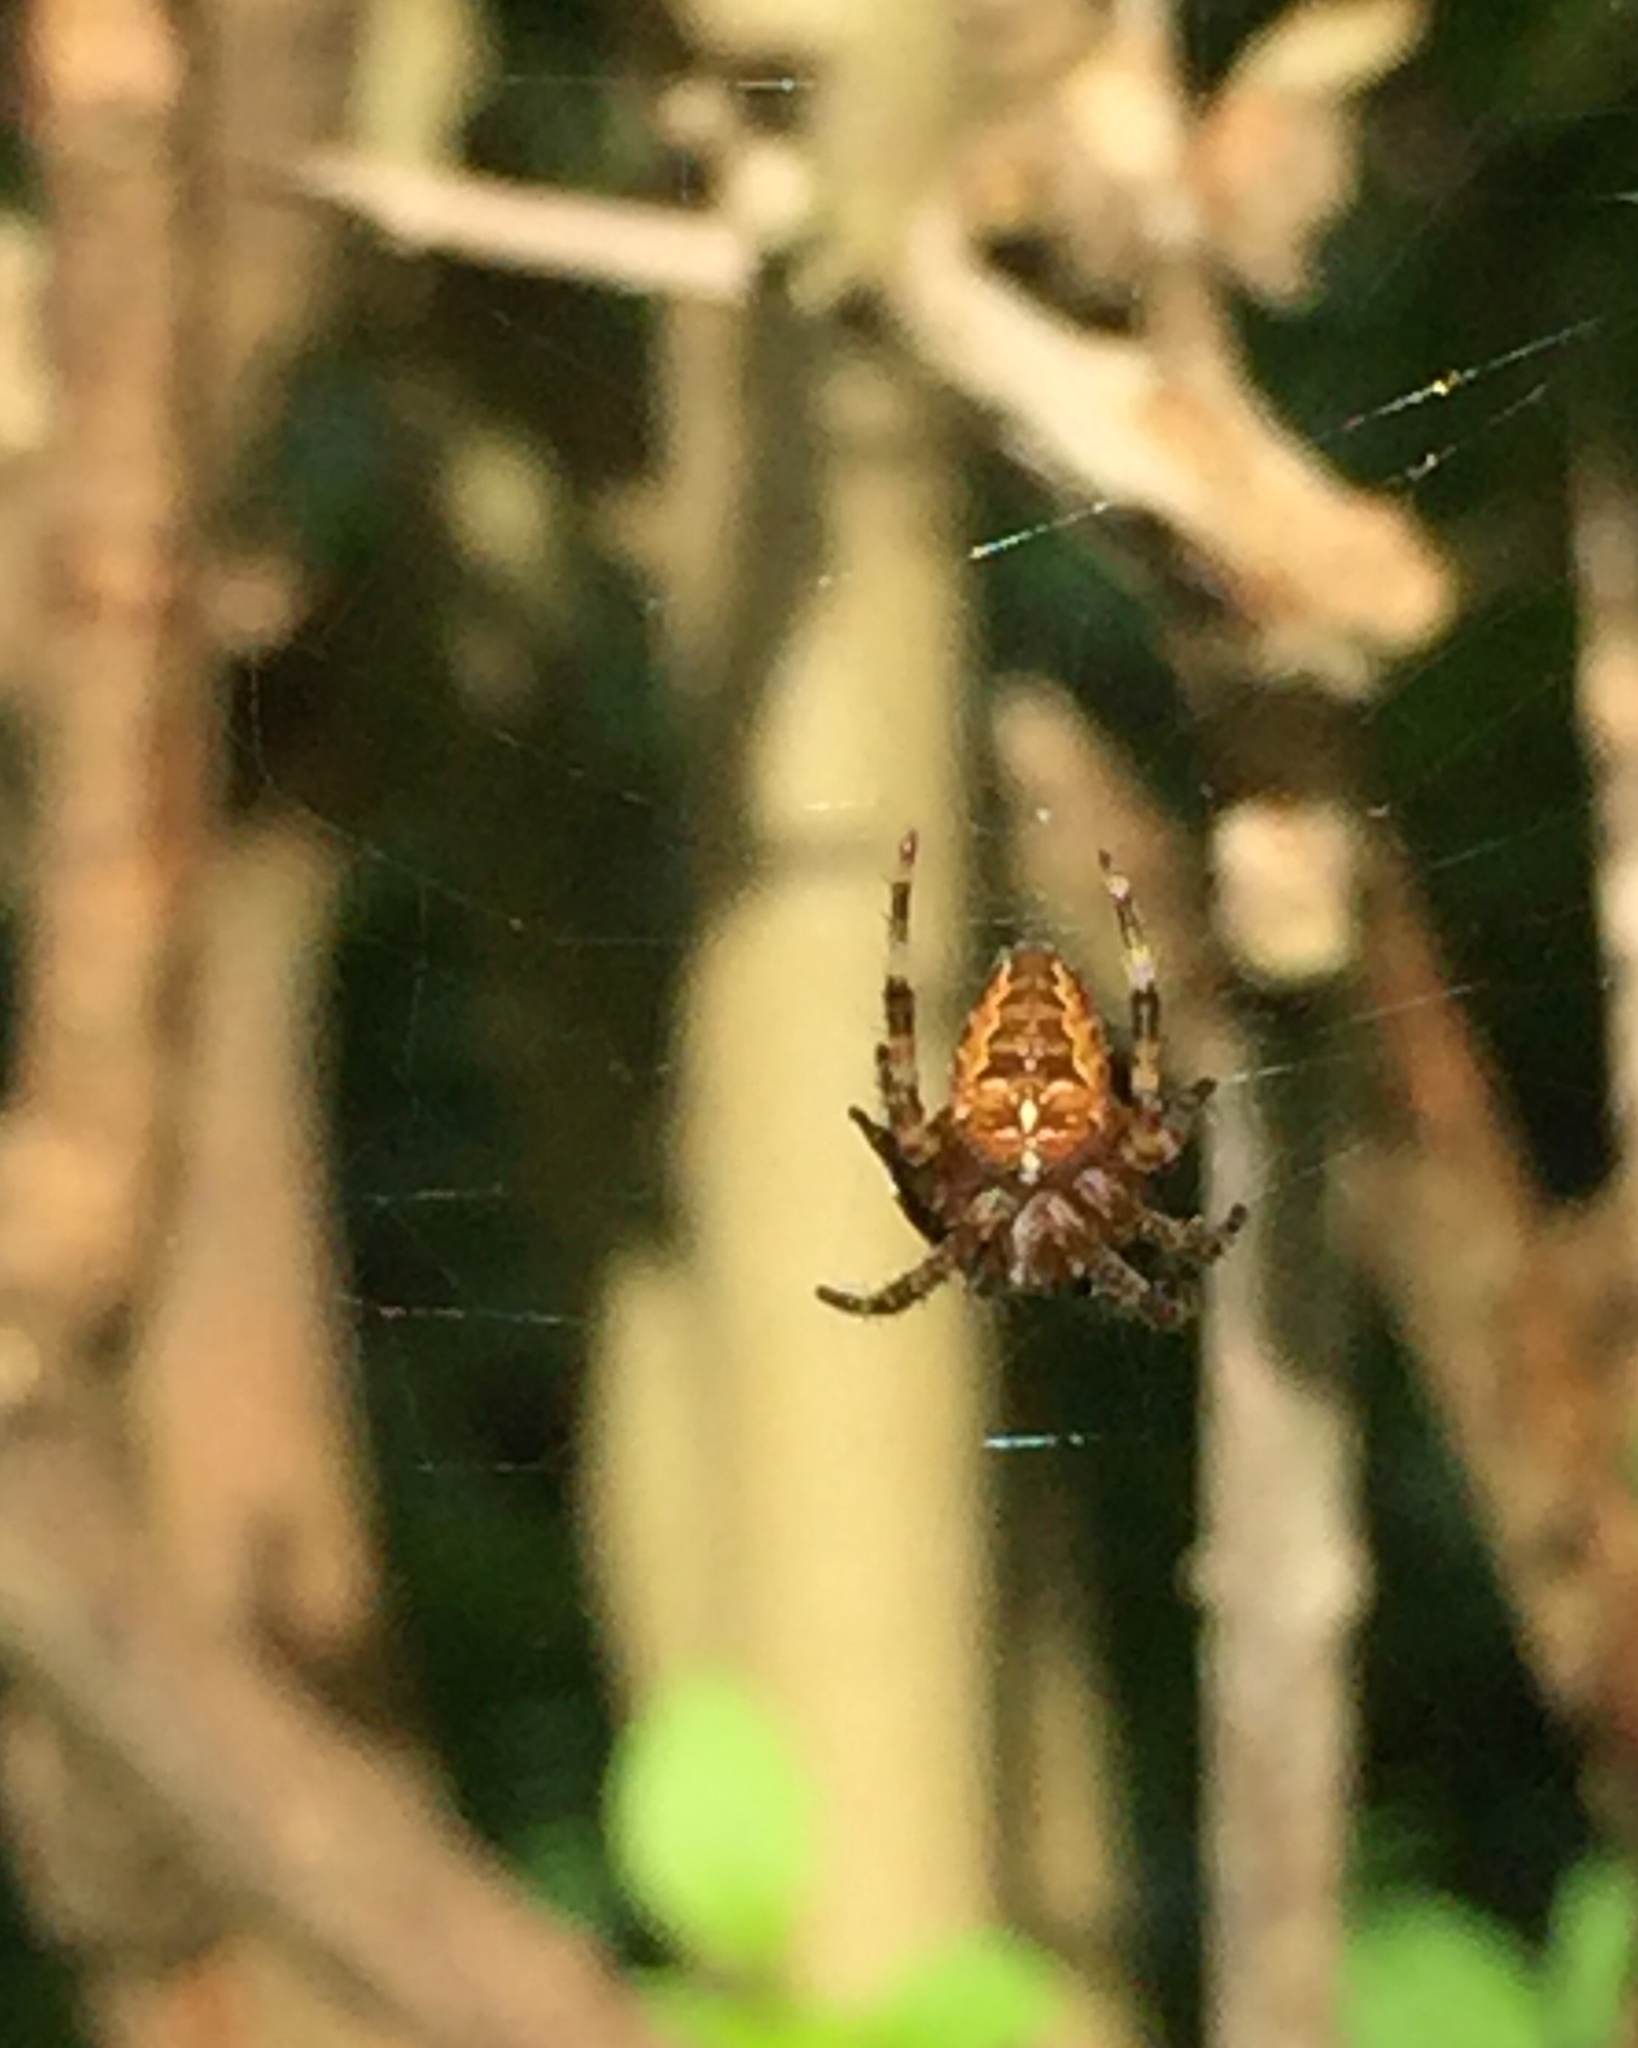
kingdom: Animalia
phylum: Arthropoda
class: Arachnida
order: Araneae
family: Araneidae
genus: Araneus
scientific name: Araneus diadematus
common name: Cross orbweaver
